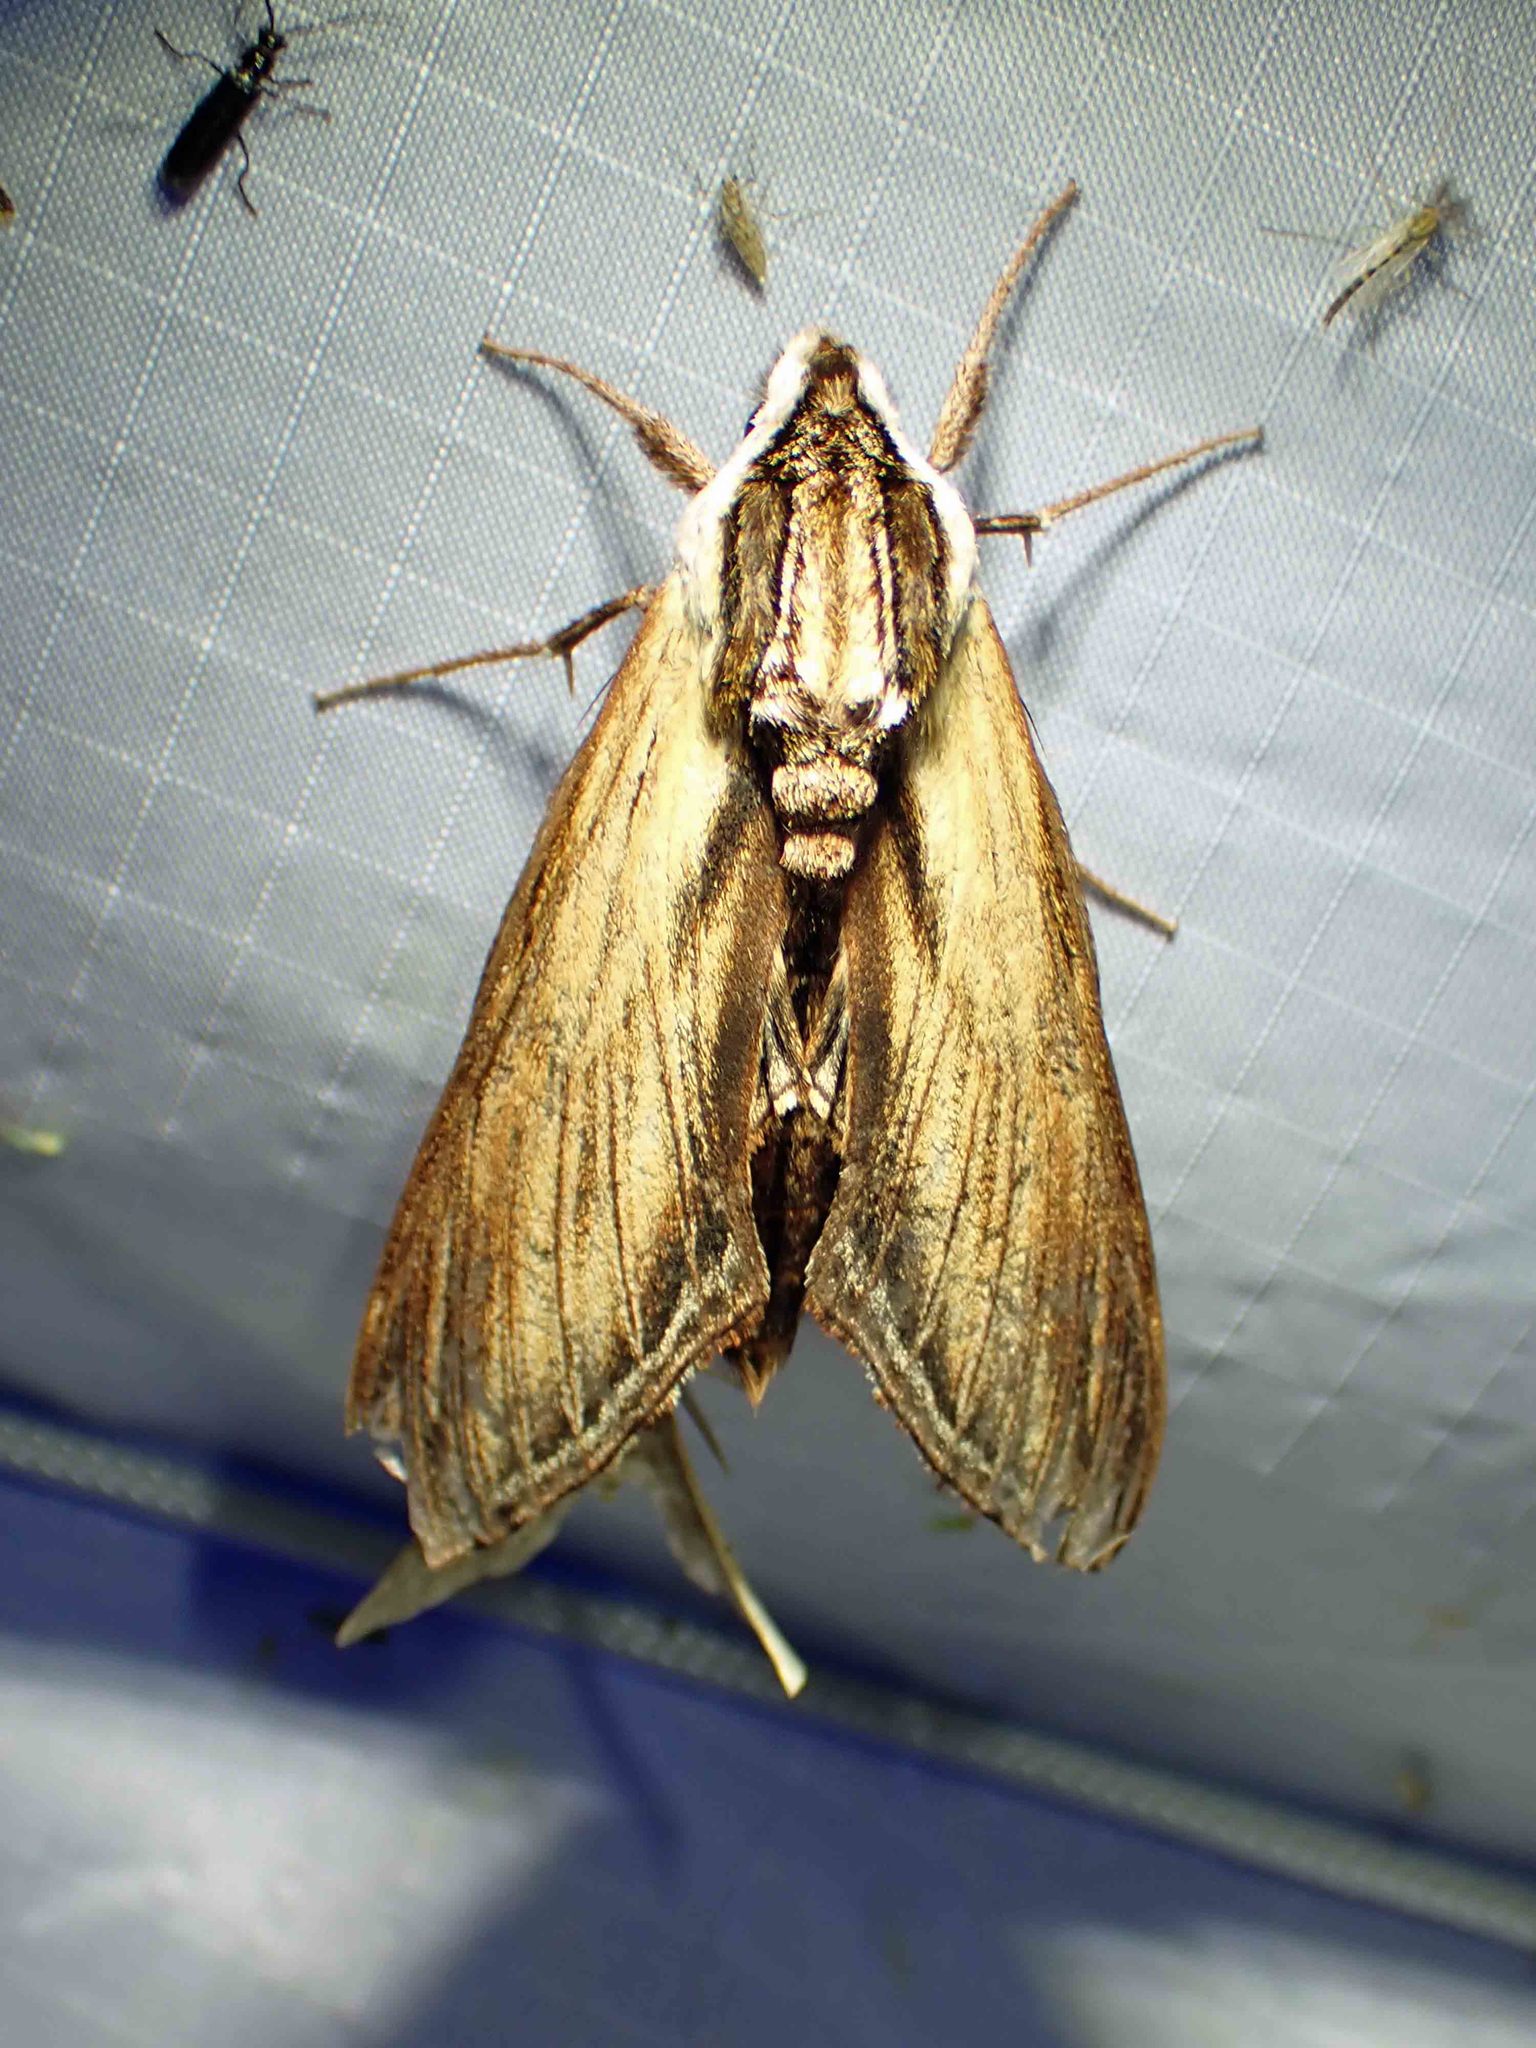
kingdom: Animalia
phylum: Arthropoda
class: Insecta
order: Lepidoptera
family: Sphingidae
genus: Sphinx
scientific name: Sphinx kalmiae
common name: Laurel sphinx
